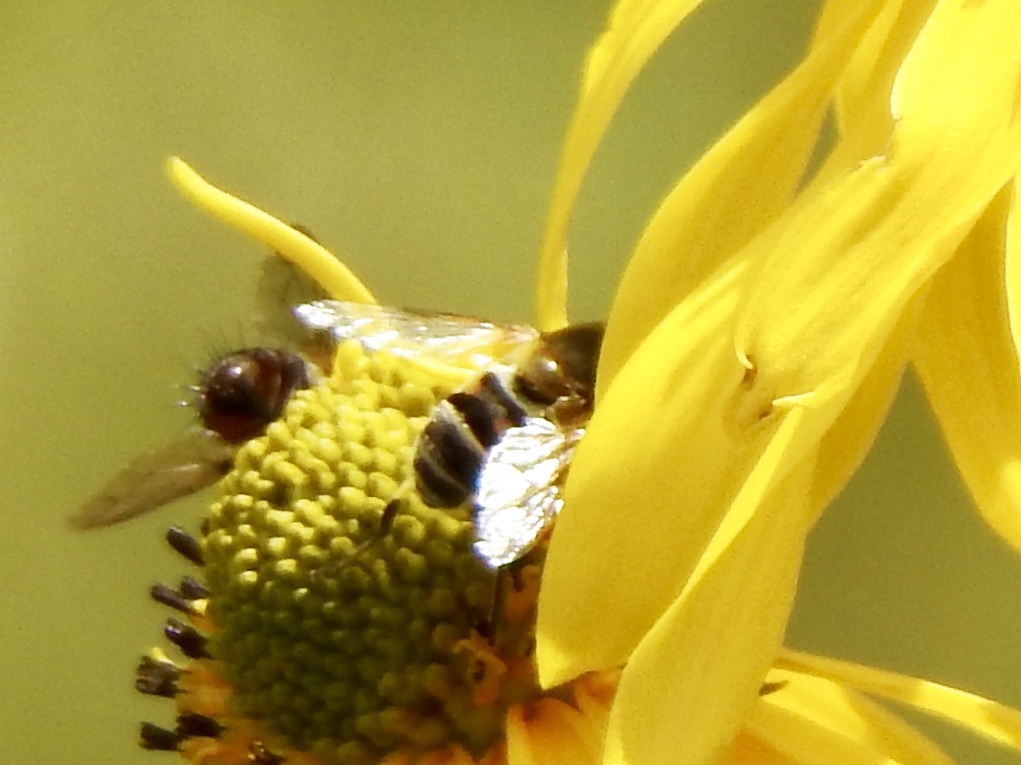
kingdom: Animalia
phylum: Arthropoda
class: Insecta
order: Diptera
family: Syrphidae
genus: Eristalis
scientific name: Eristalis stipator
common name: Yellow-shouldered drone fly
